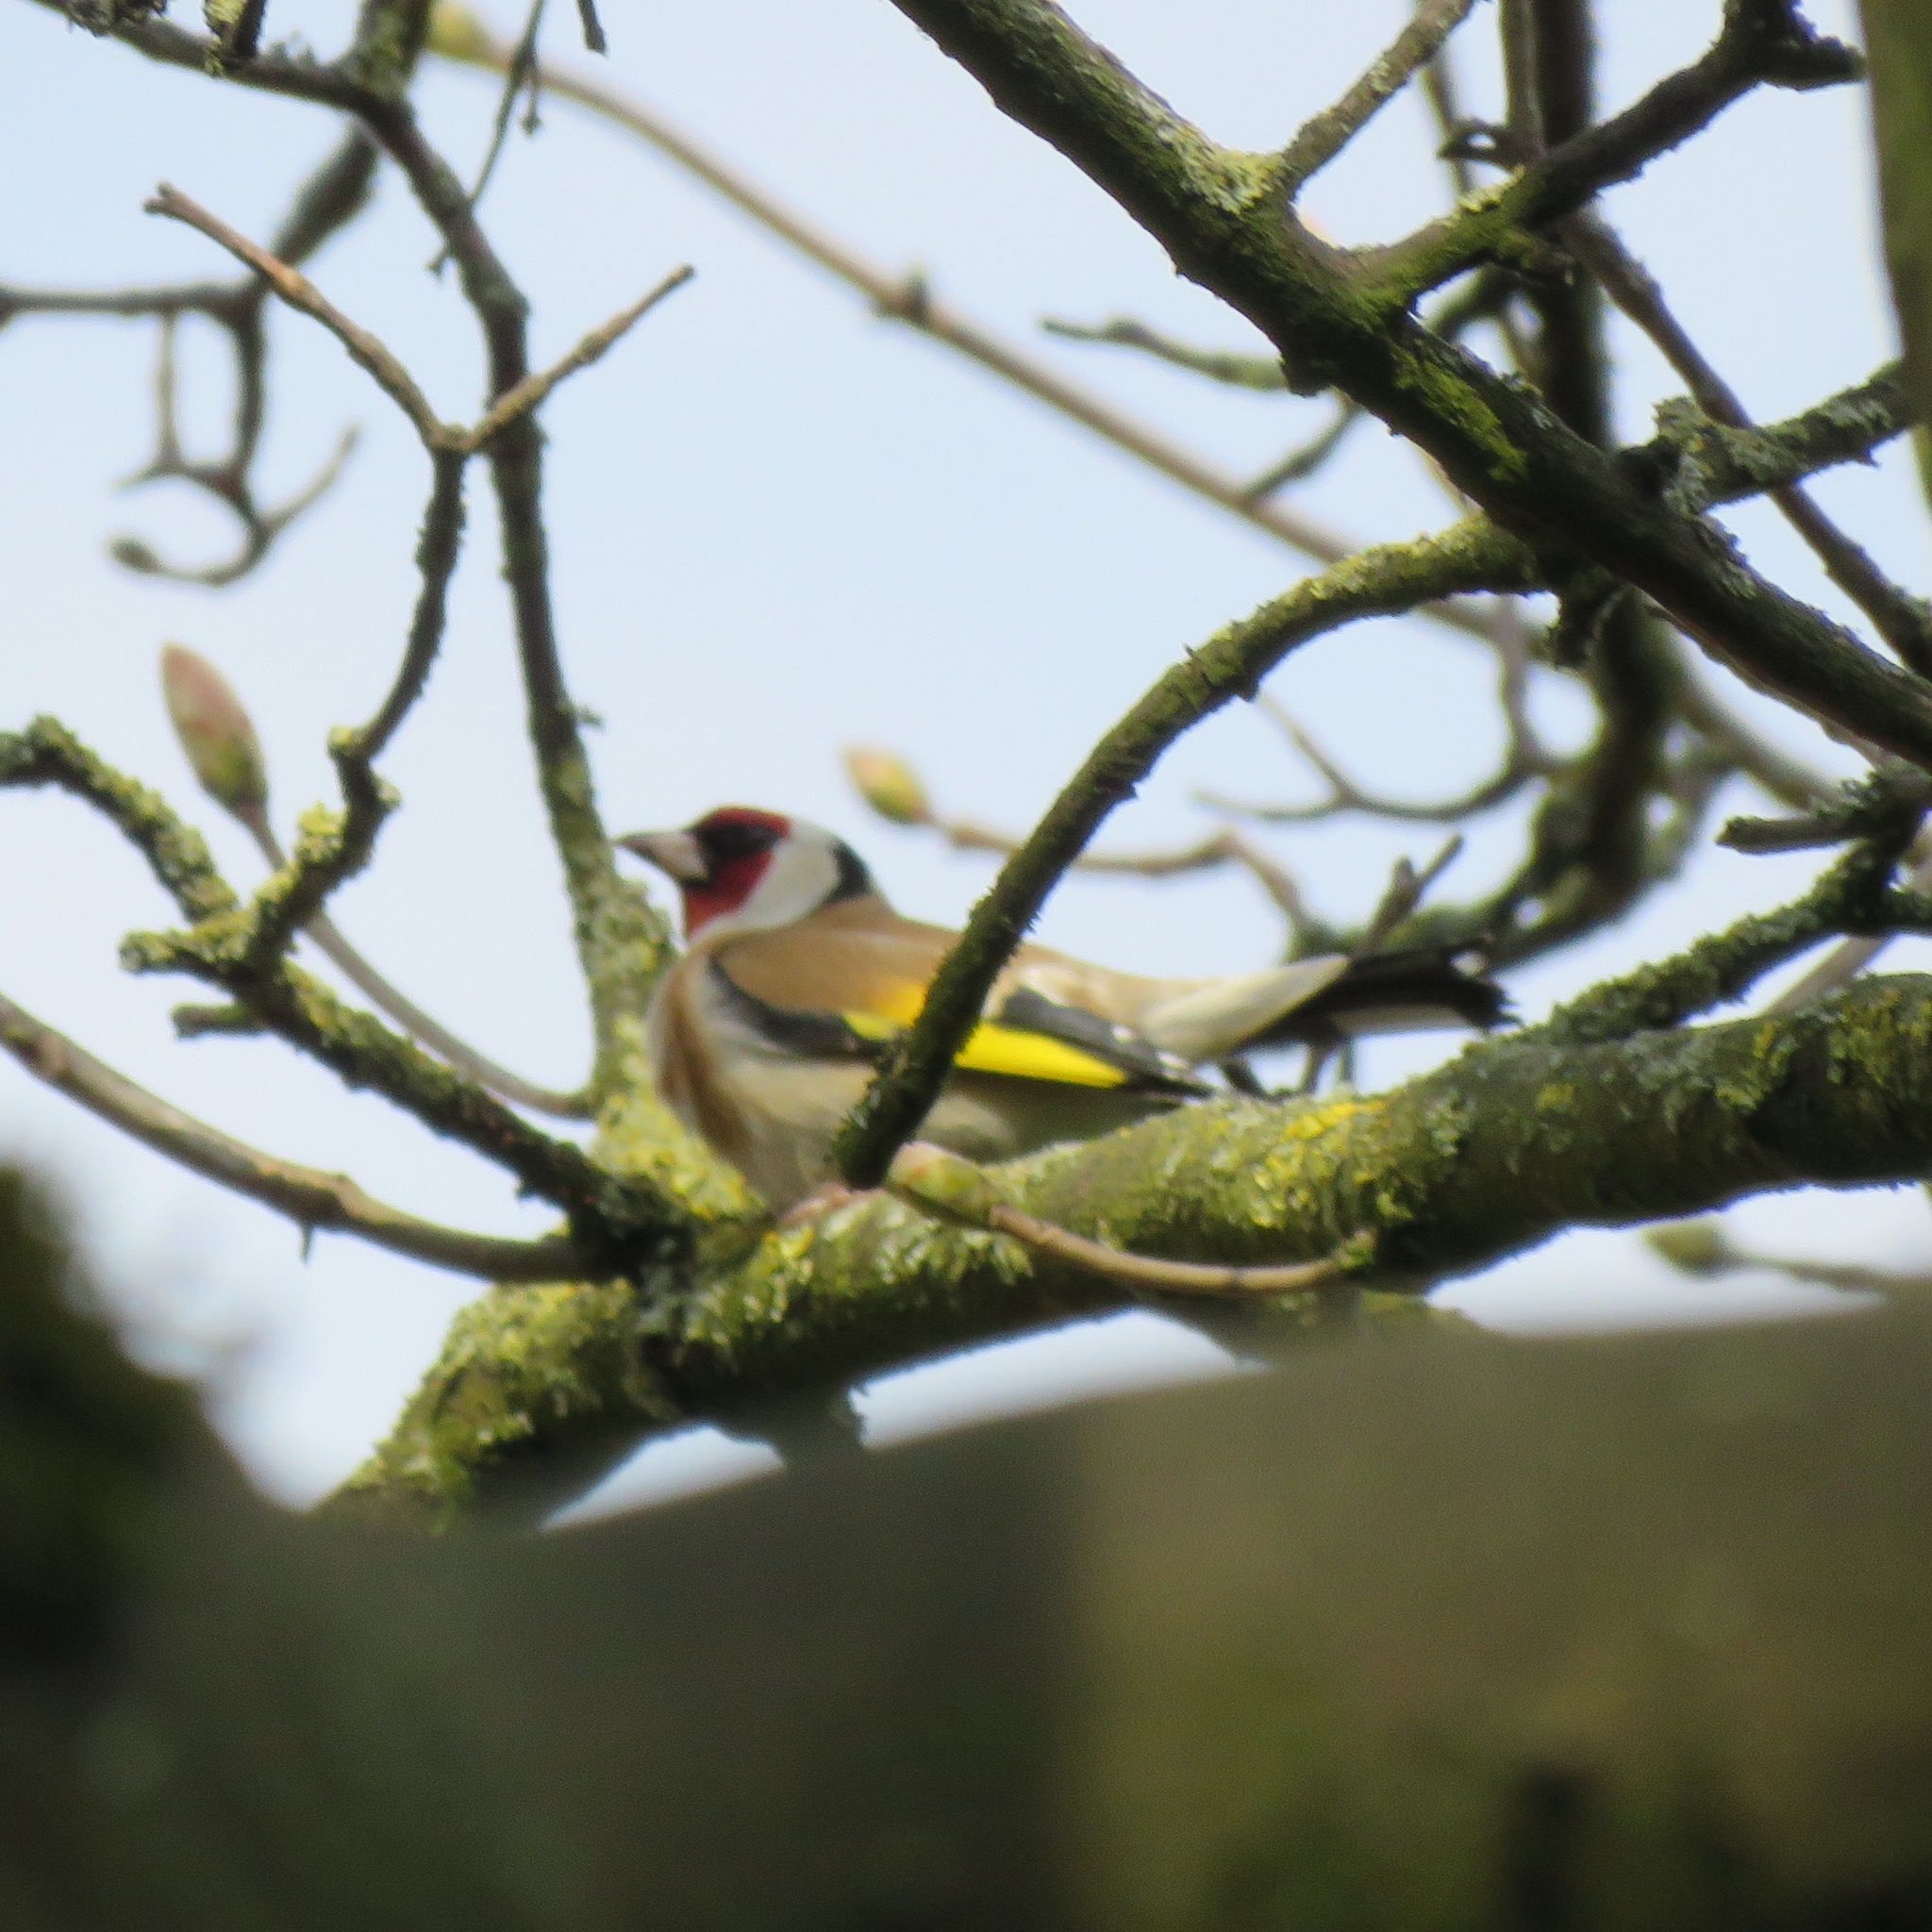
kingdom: Animalia
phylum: Chordata
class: Aves
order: Passeriformes
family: Fringillidae
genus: Carduelis
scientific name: Carduelis carduelis
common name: European goldfinch
